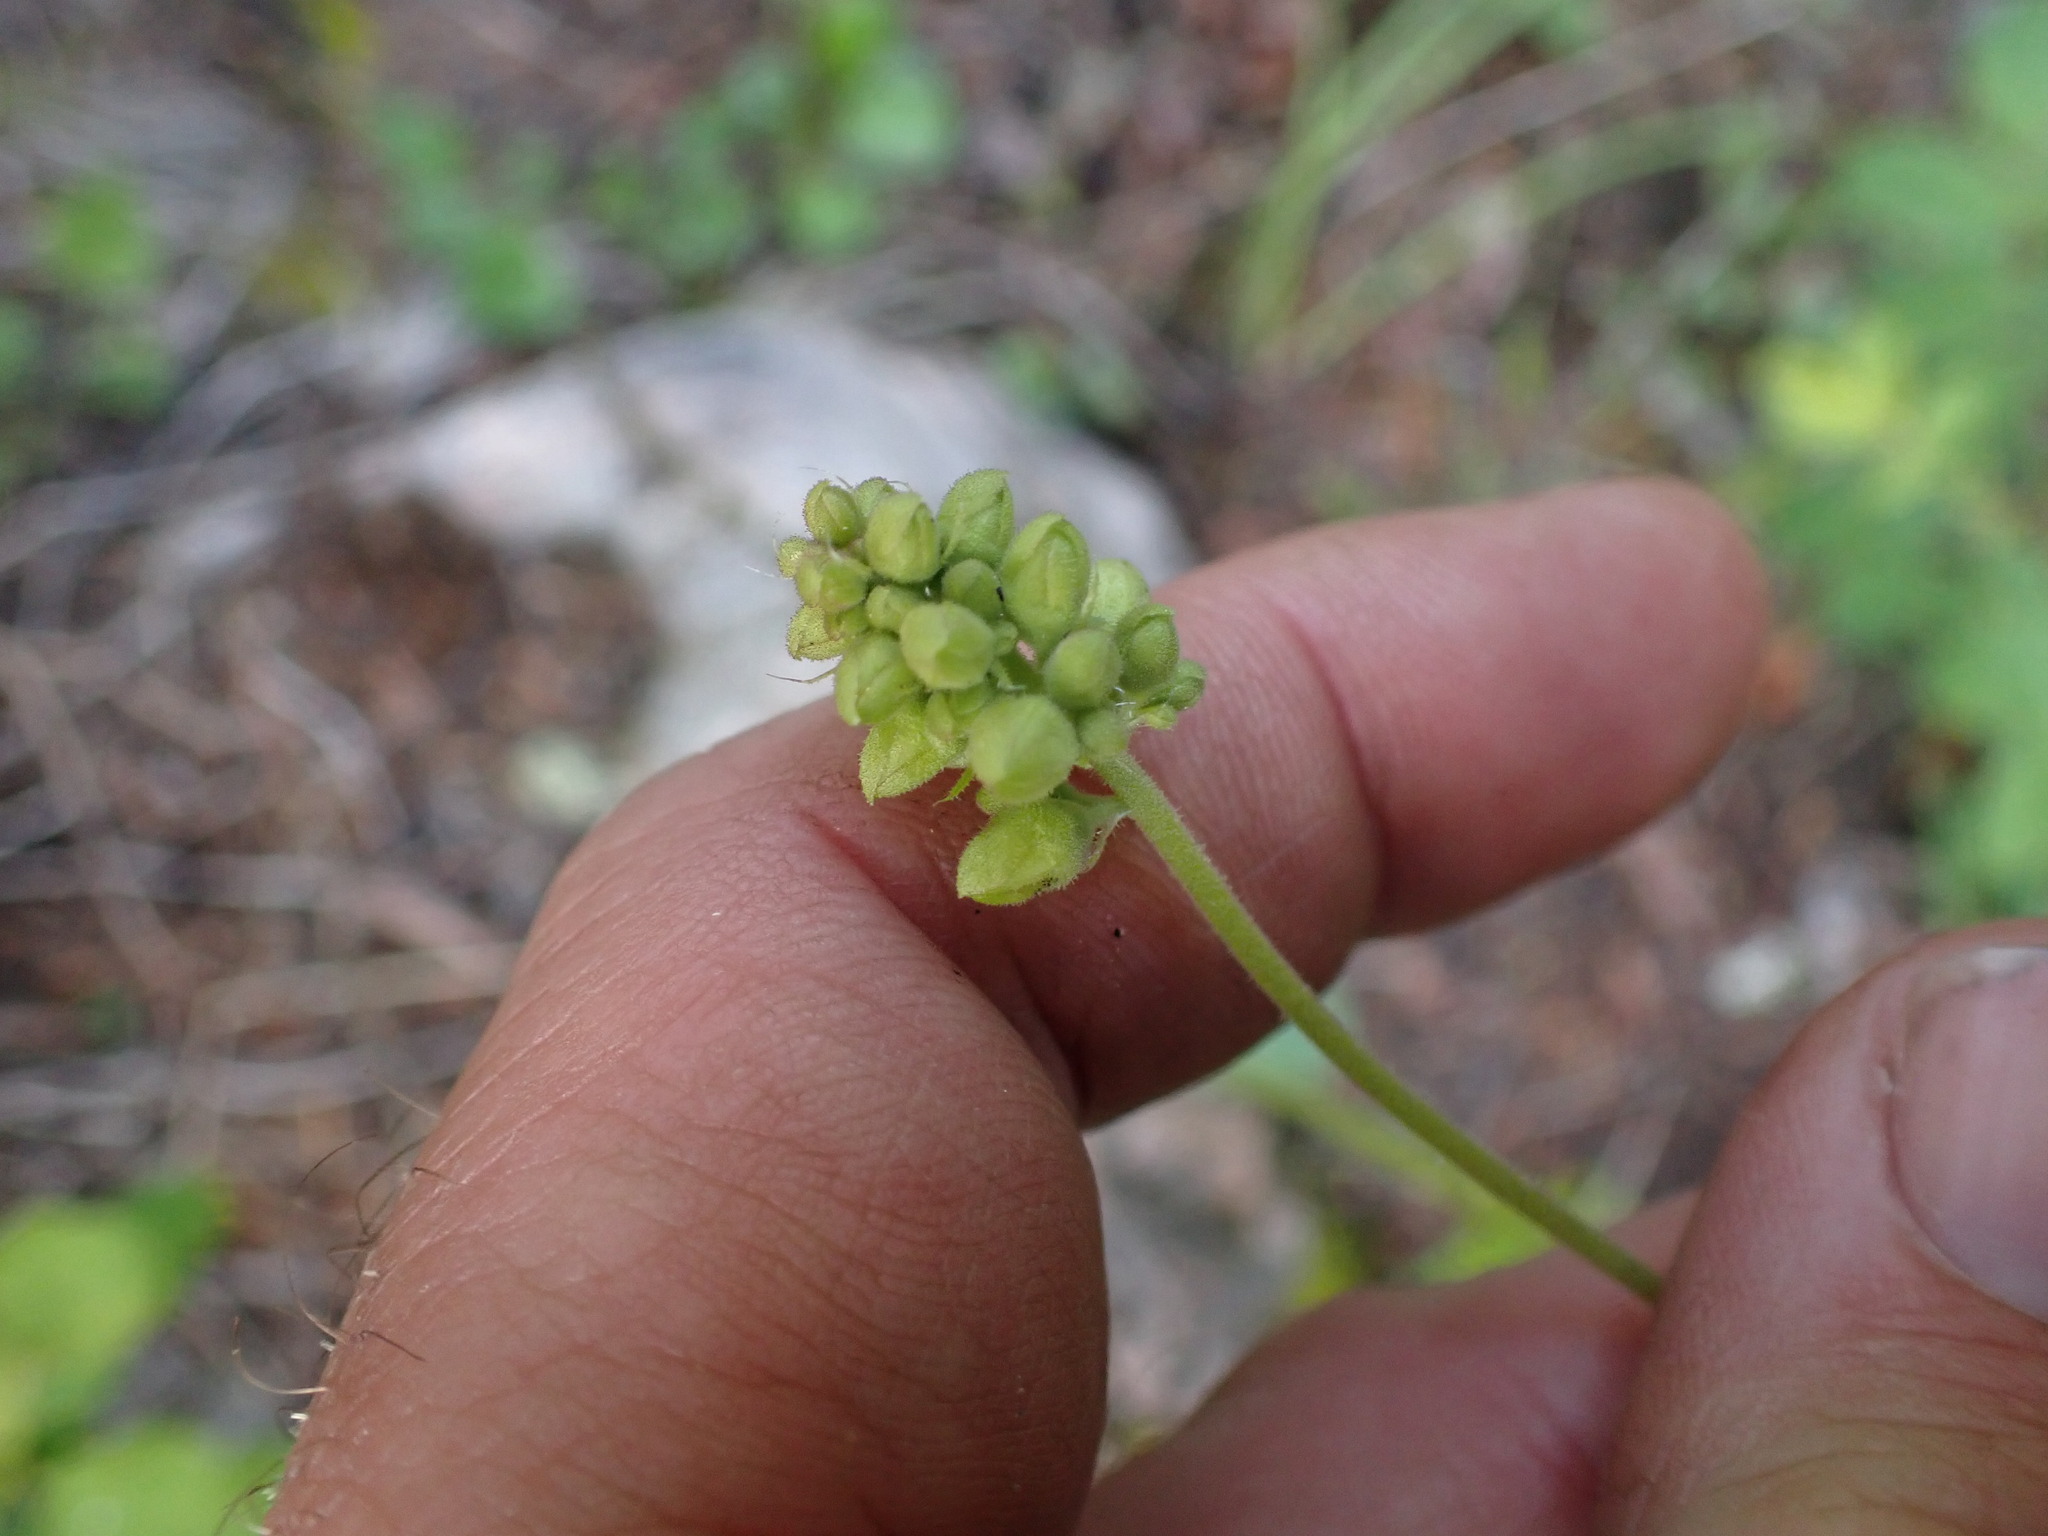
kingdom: Plantae
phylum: Tracheophyta
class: Magnoliopsida
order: Saxifragales
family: Saxifragaceae
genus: Heuchera
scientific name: Heuchera cylindrica
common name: Mat alumroot
